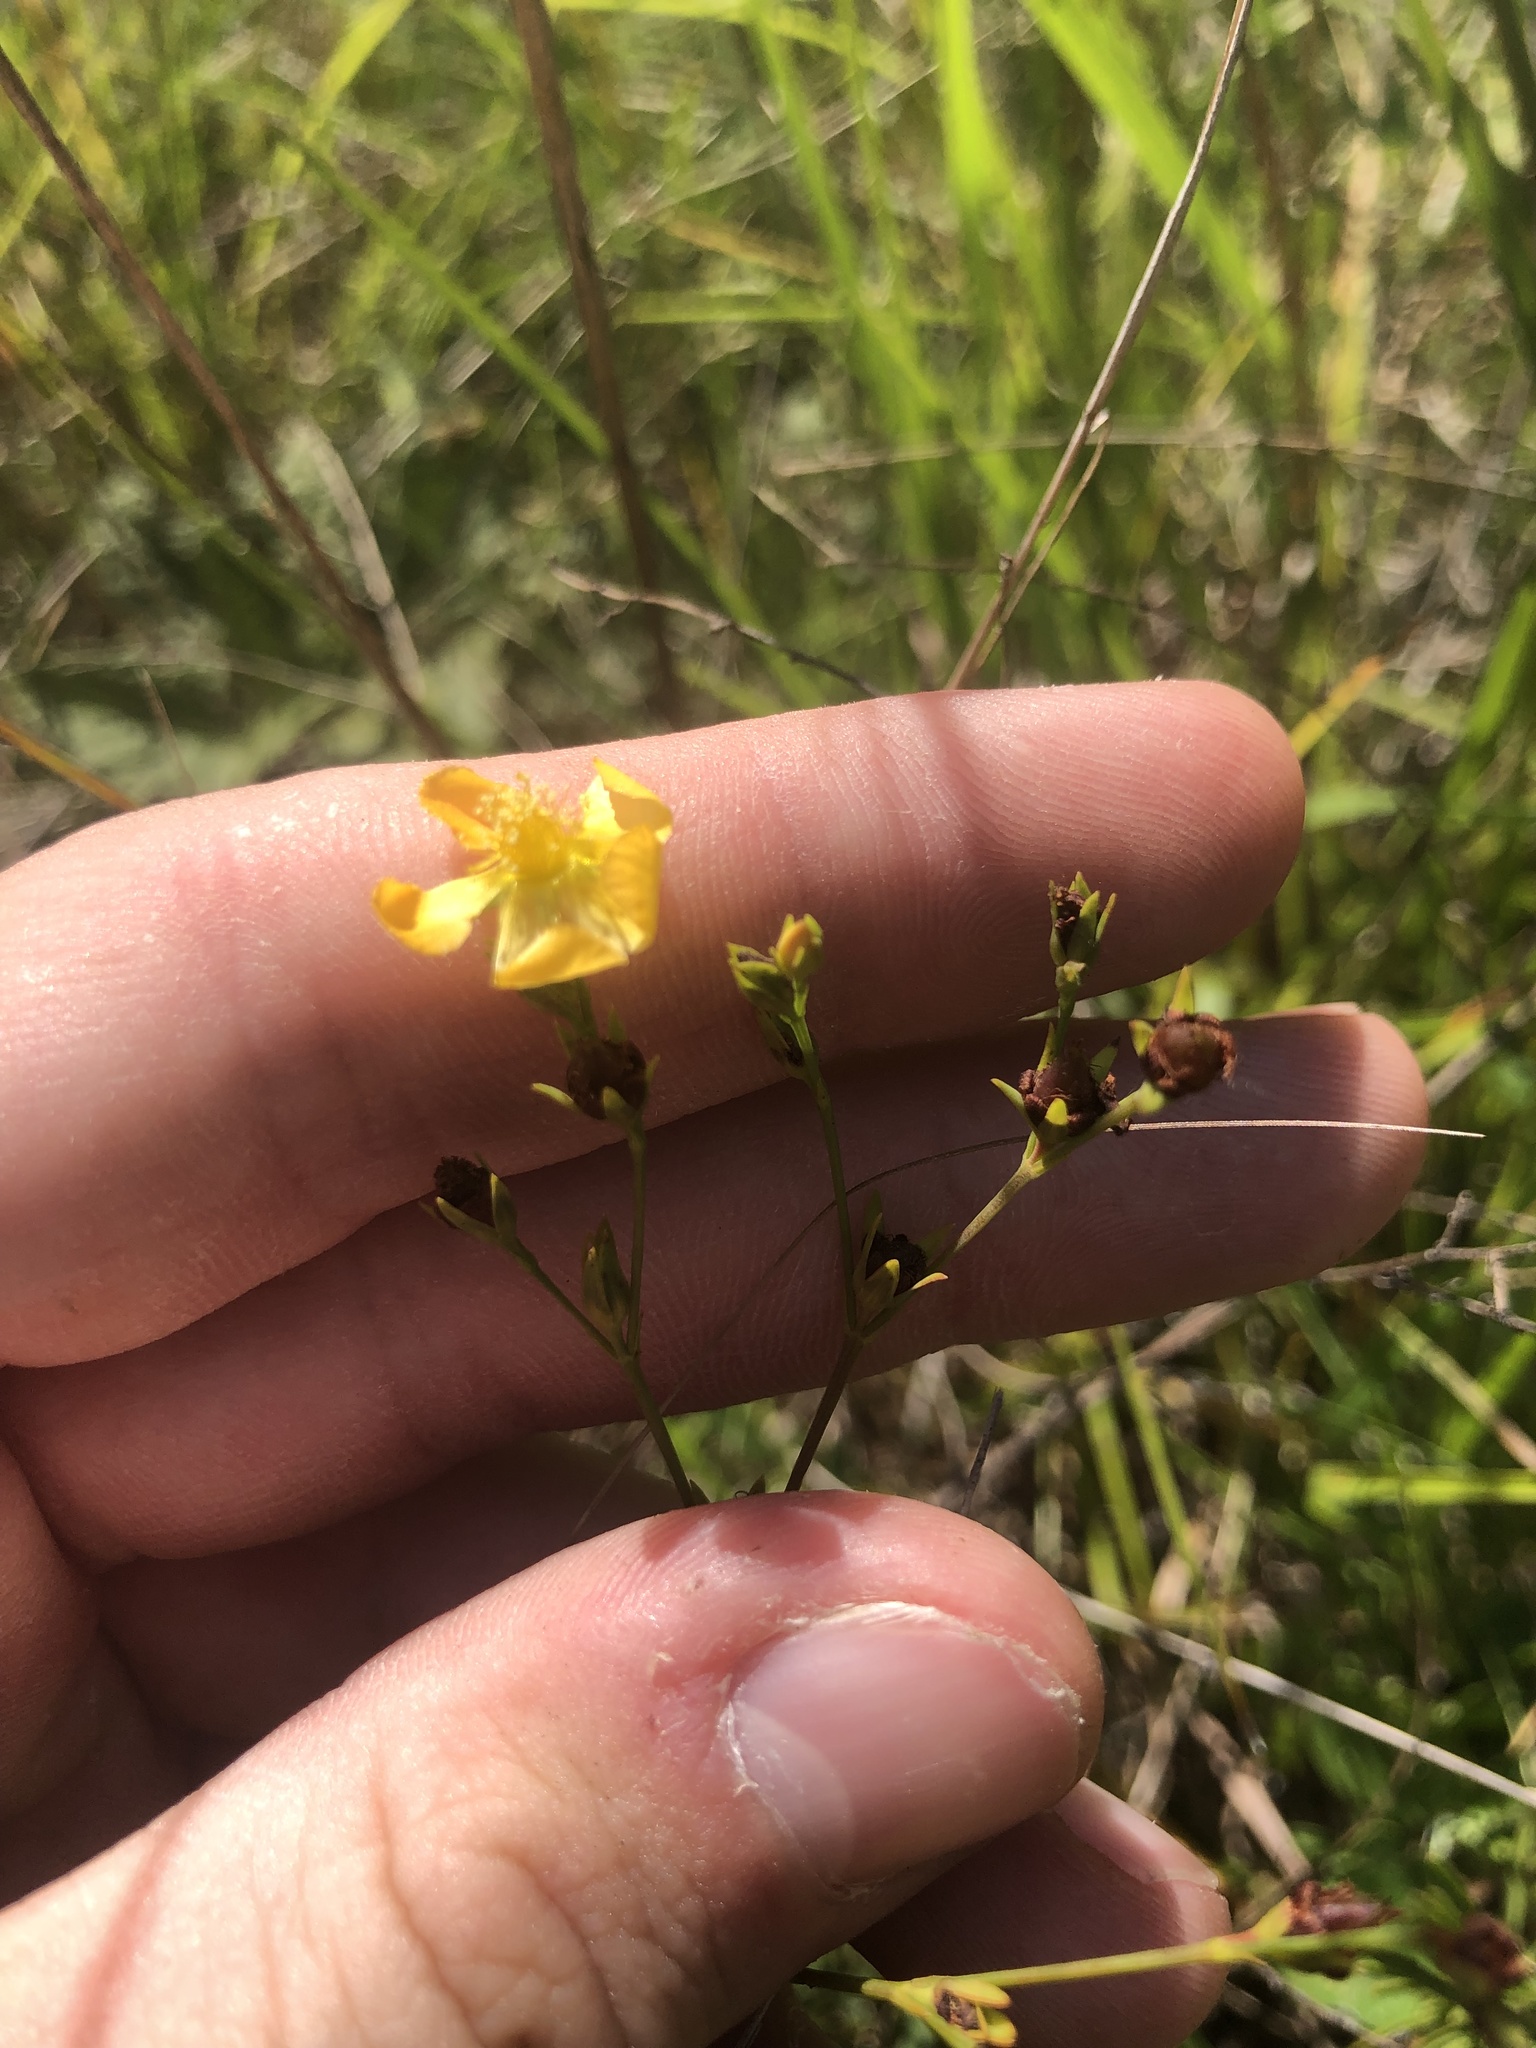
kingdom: Plantae
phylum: Tracheophyta
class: Magnoliopsida
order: Malpighiales
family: Hypericaceae
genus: Hypericum
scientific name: Hypericum virgatum
